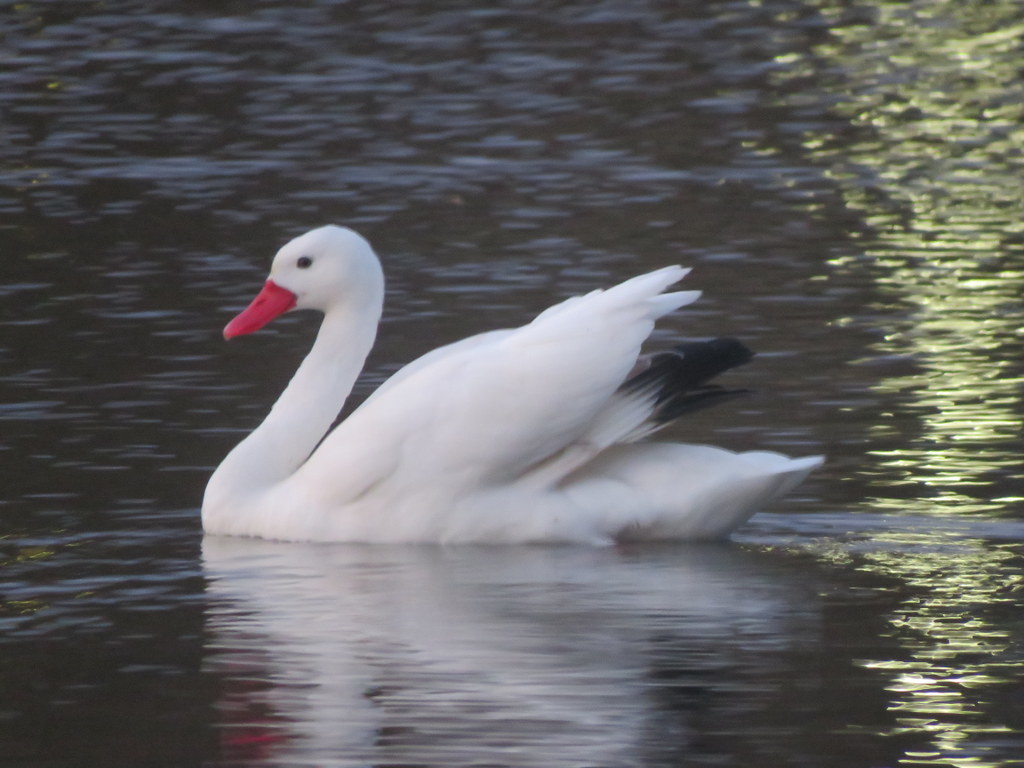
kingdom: Animalia
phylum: Chordata
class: Aves
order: Anseriformes
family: Anatidae
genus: Coscoroba
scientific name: Coscoroba coscoroba
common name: Coscoroba swan
